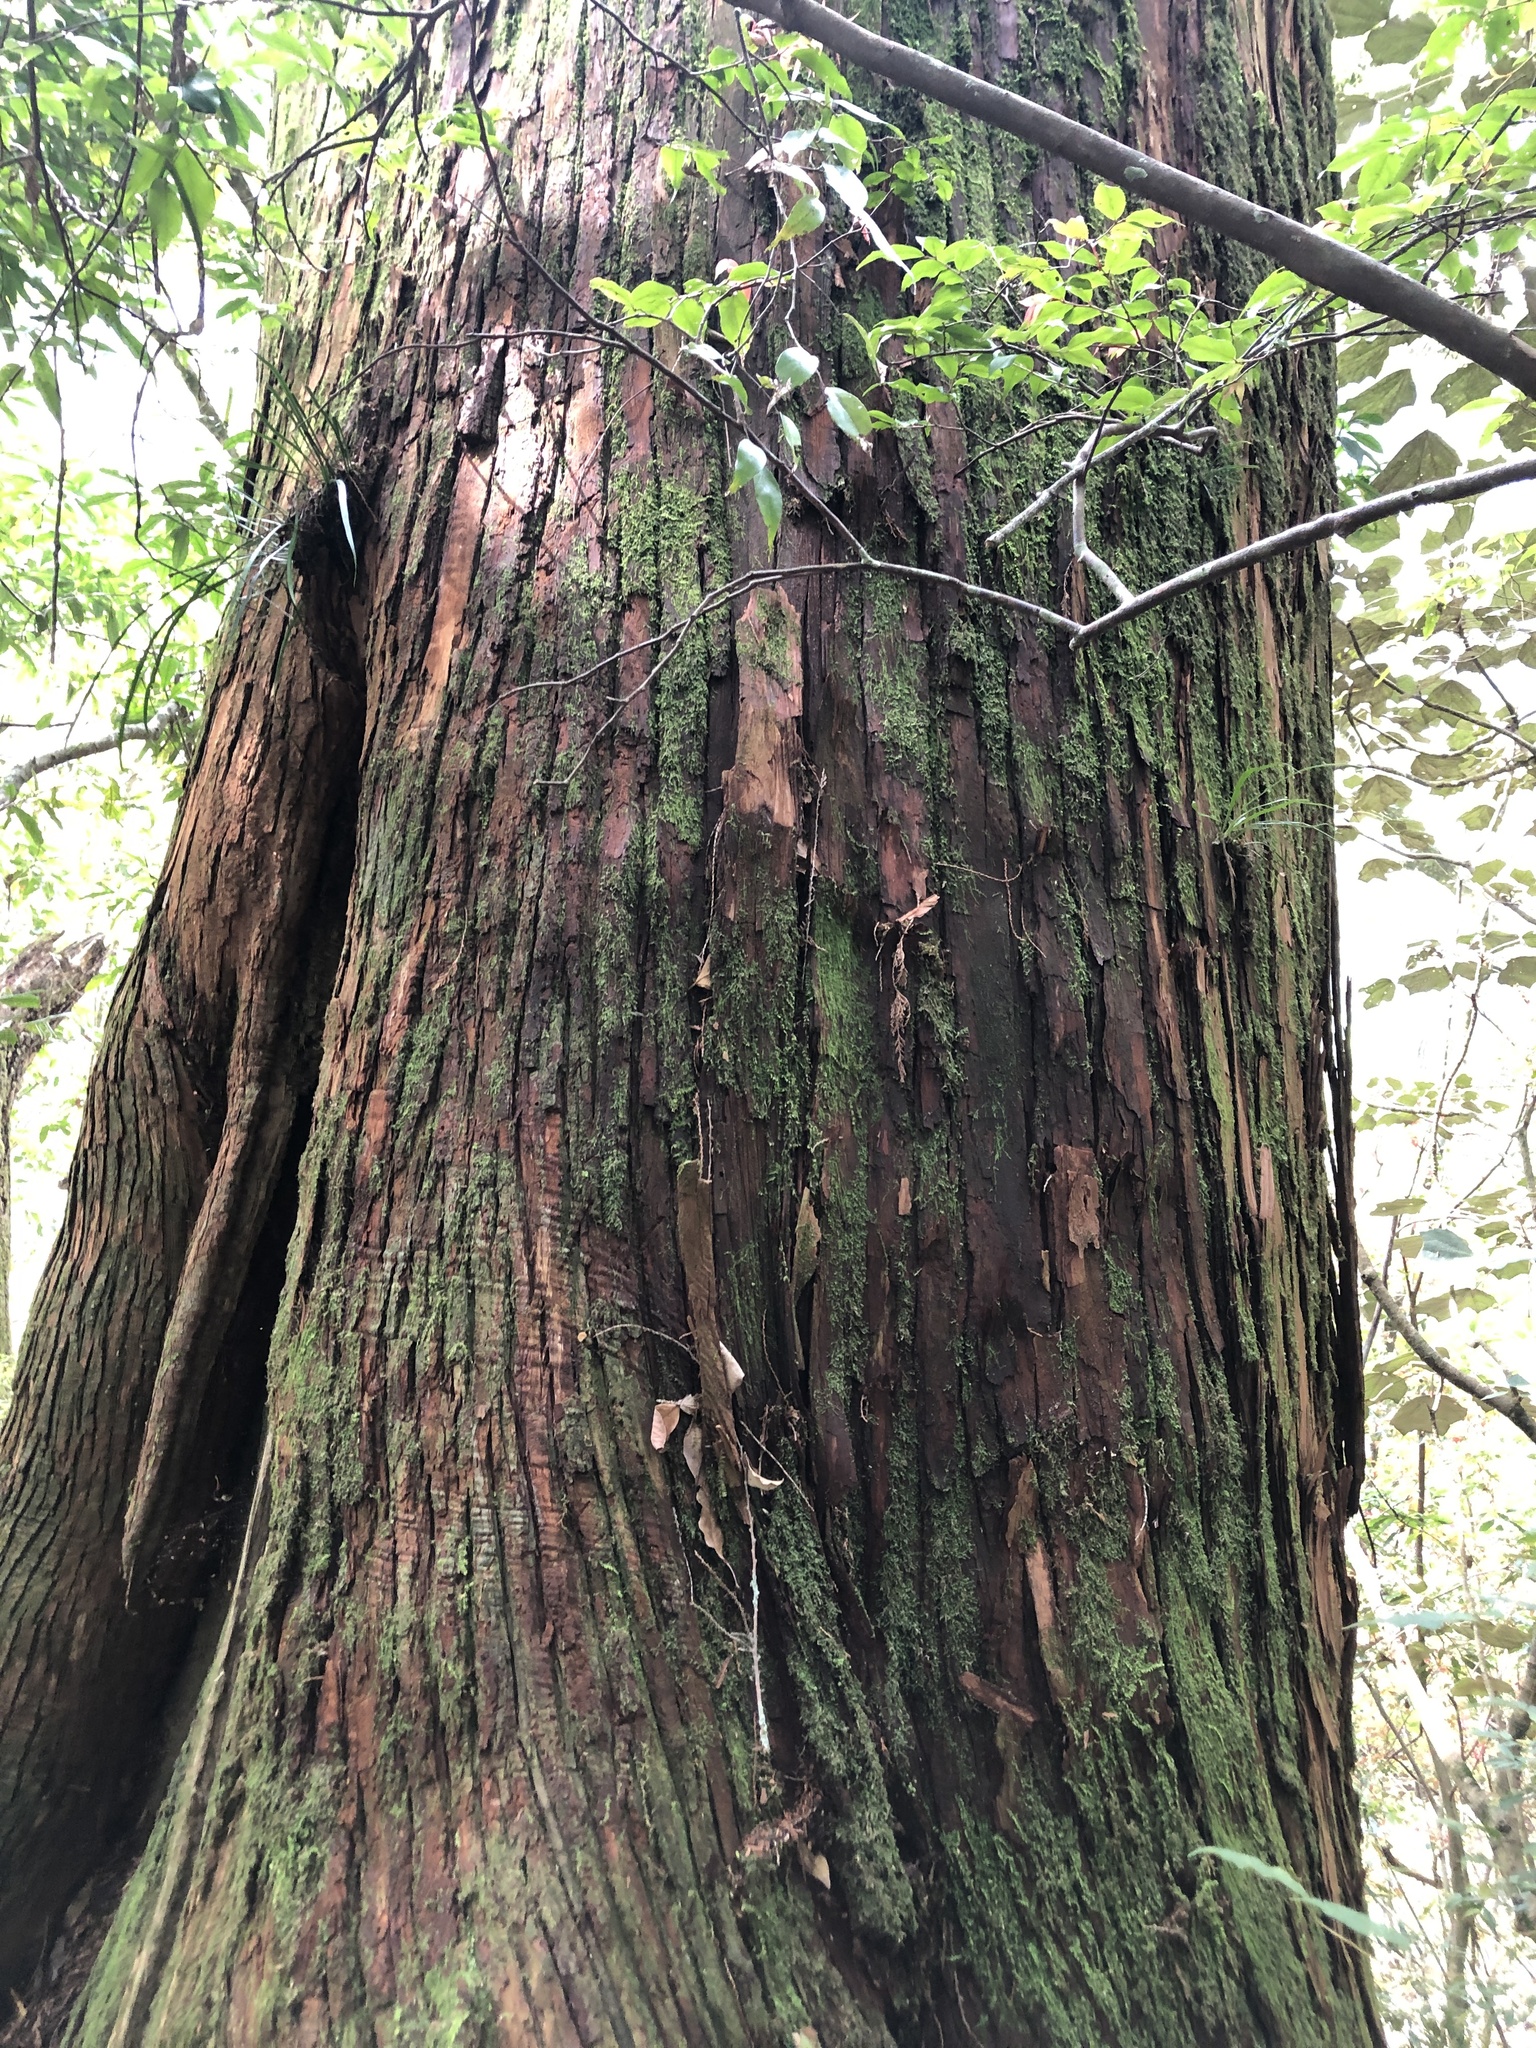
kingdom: Plantae
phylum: Tracheophyta
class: Pinopsida
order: Pinales
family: Cupressaceae
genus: Chamaecyparis
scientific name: Chamaecyparis formosensis
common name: Formosan cypress
